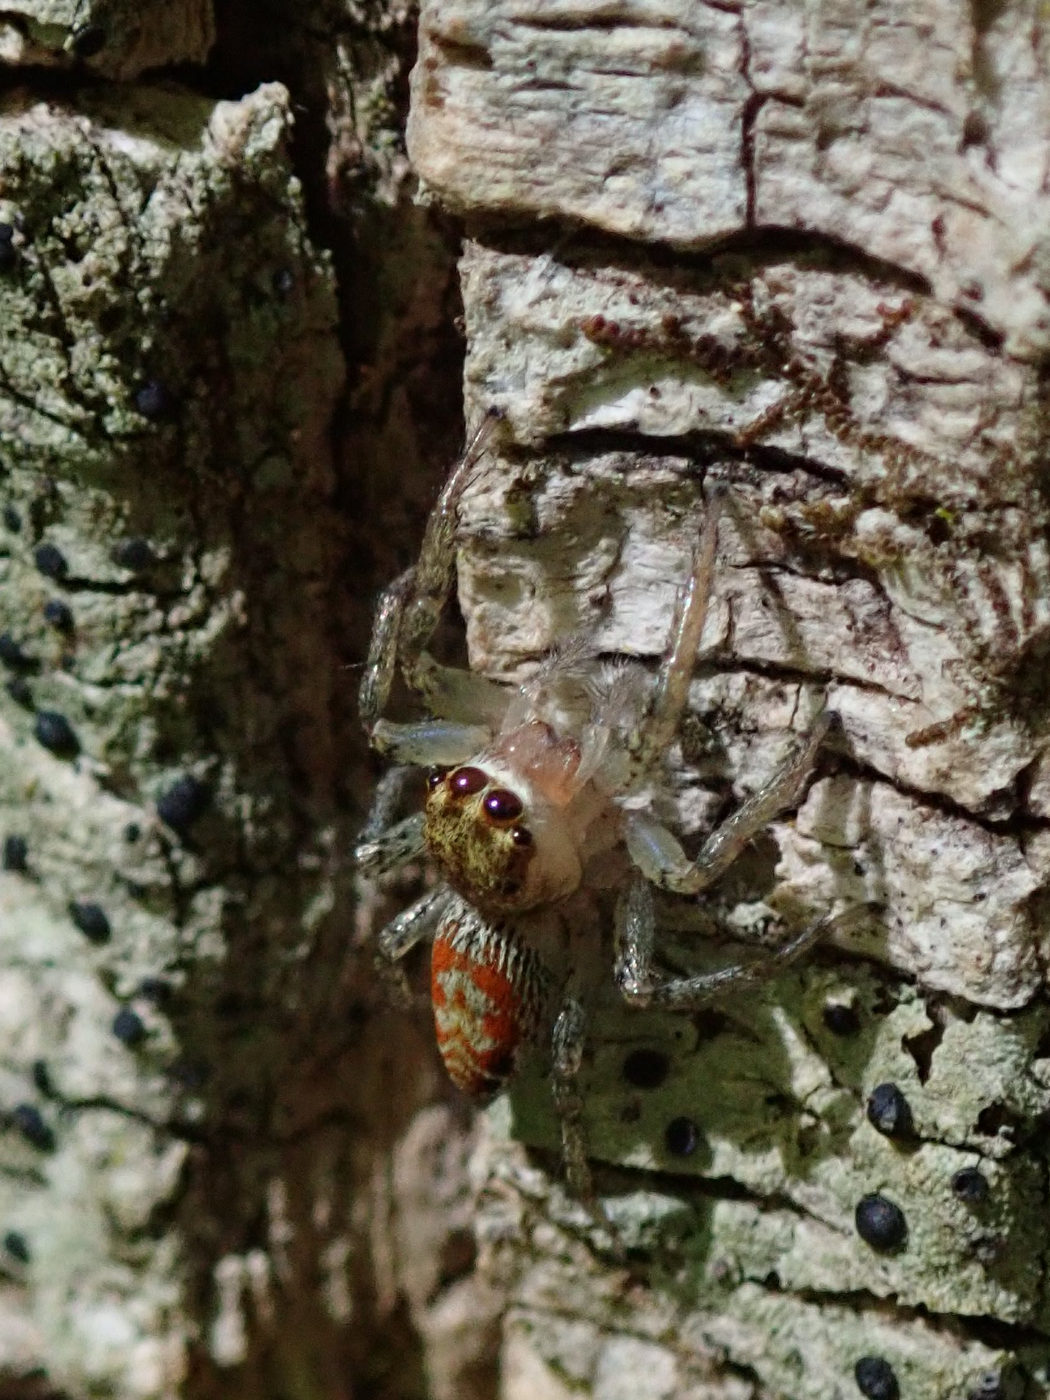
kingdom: Animalia
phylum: Arthropoda
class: Arachnida
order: Araneae
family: Salticidae
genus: Maevia
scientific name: Maevia inclemens
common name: Dimorphic jumper
